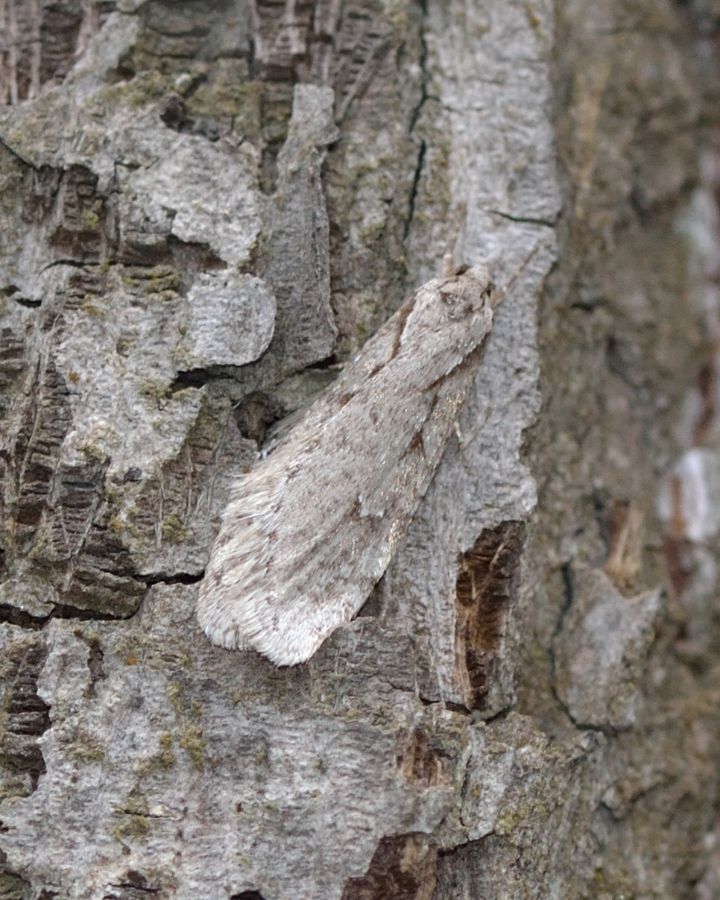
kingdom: Animalia
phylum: Arthropoda
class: Insecta
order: Lepidoptera
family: Depressariidae
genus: Semioscopis
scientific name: Semioscopis avellanella
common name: Early flat-body
